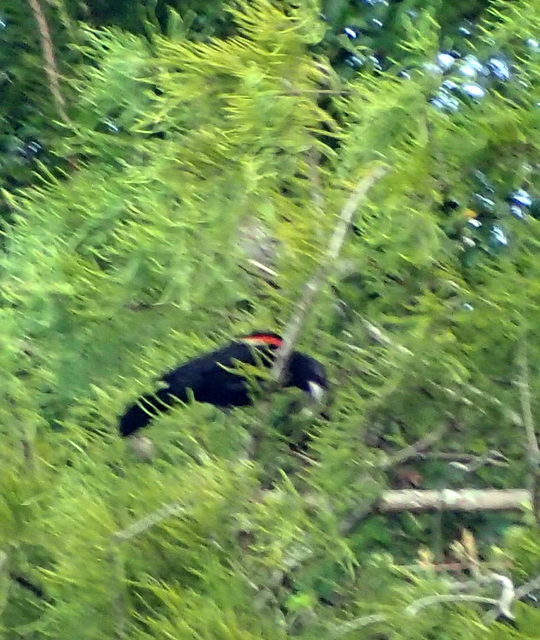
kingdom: Animalia
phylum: Chordata
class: Aves
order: Passeriformes
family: Icteridae
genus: Agelaius
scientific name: Agelaius phoeniceus
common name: Red-winged blackbird
